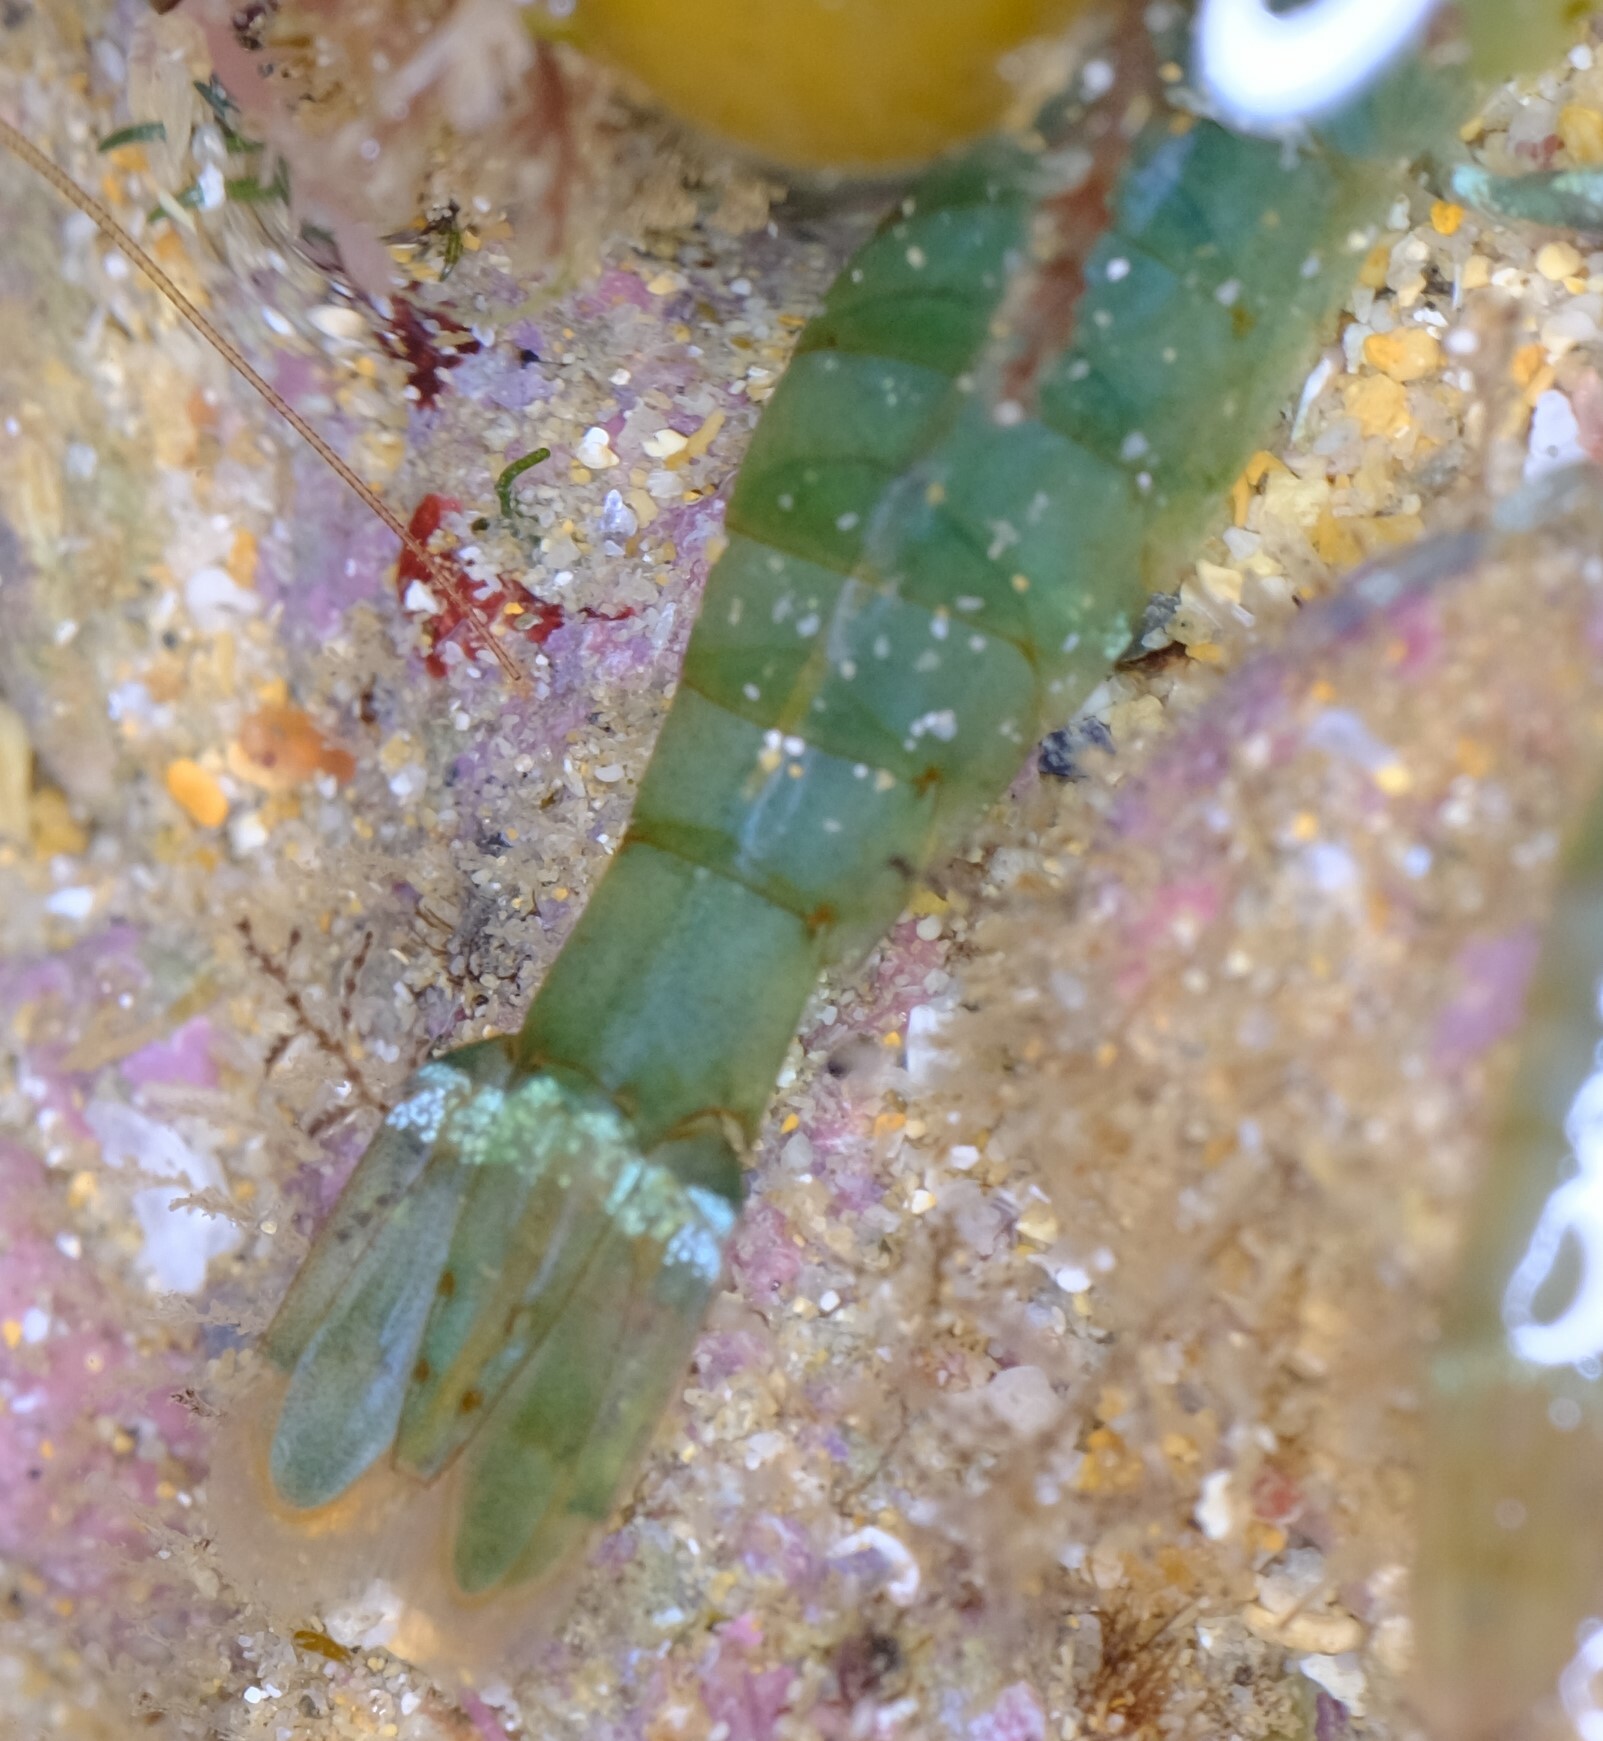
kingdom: Animalia
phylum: Arthropoda
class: Malacostraca
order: Decapoda
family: Hippolytidae
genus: Alope
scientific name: Alope orientalis
